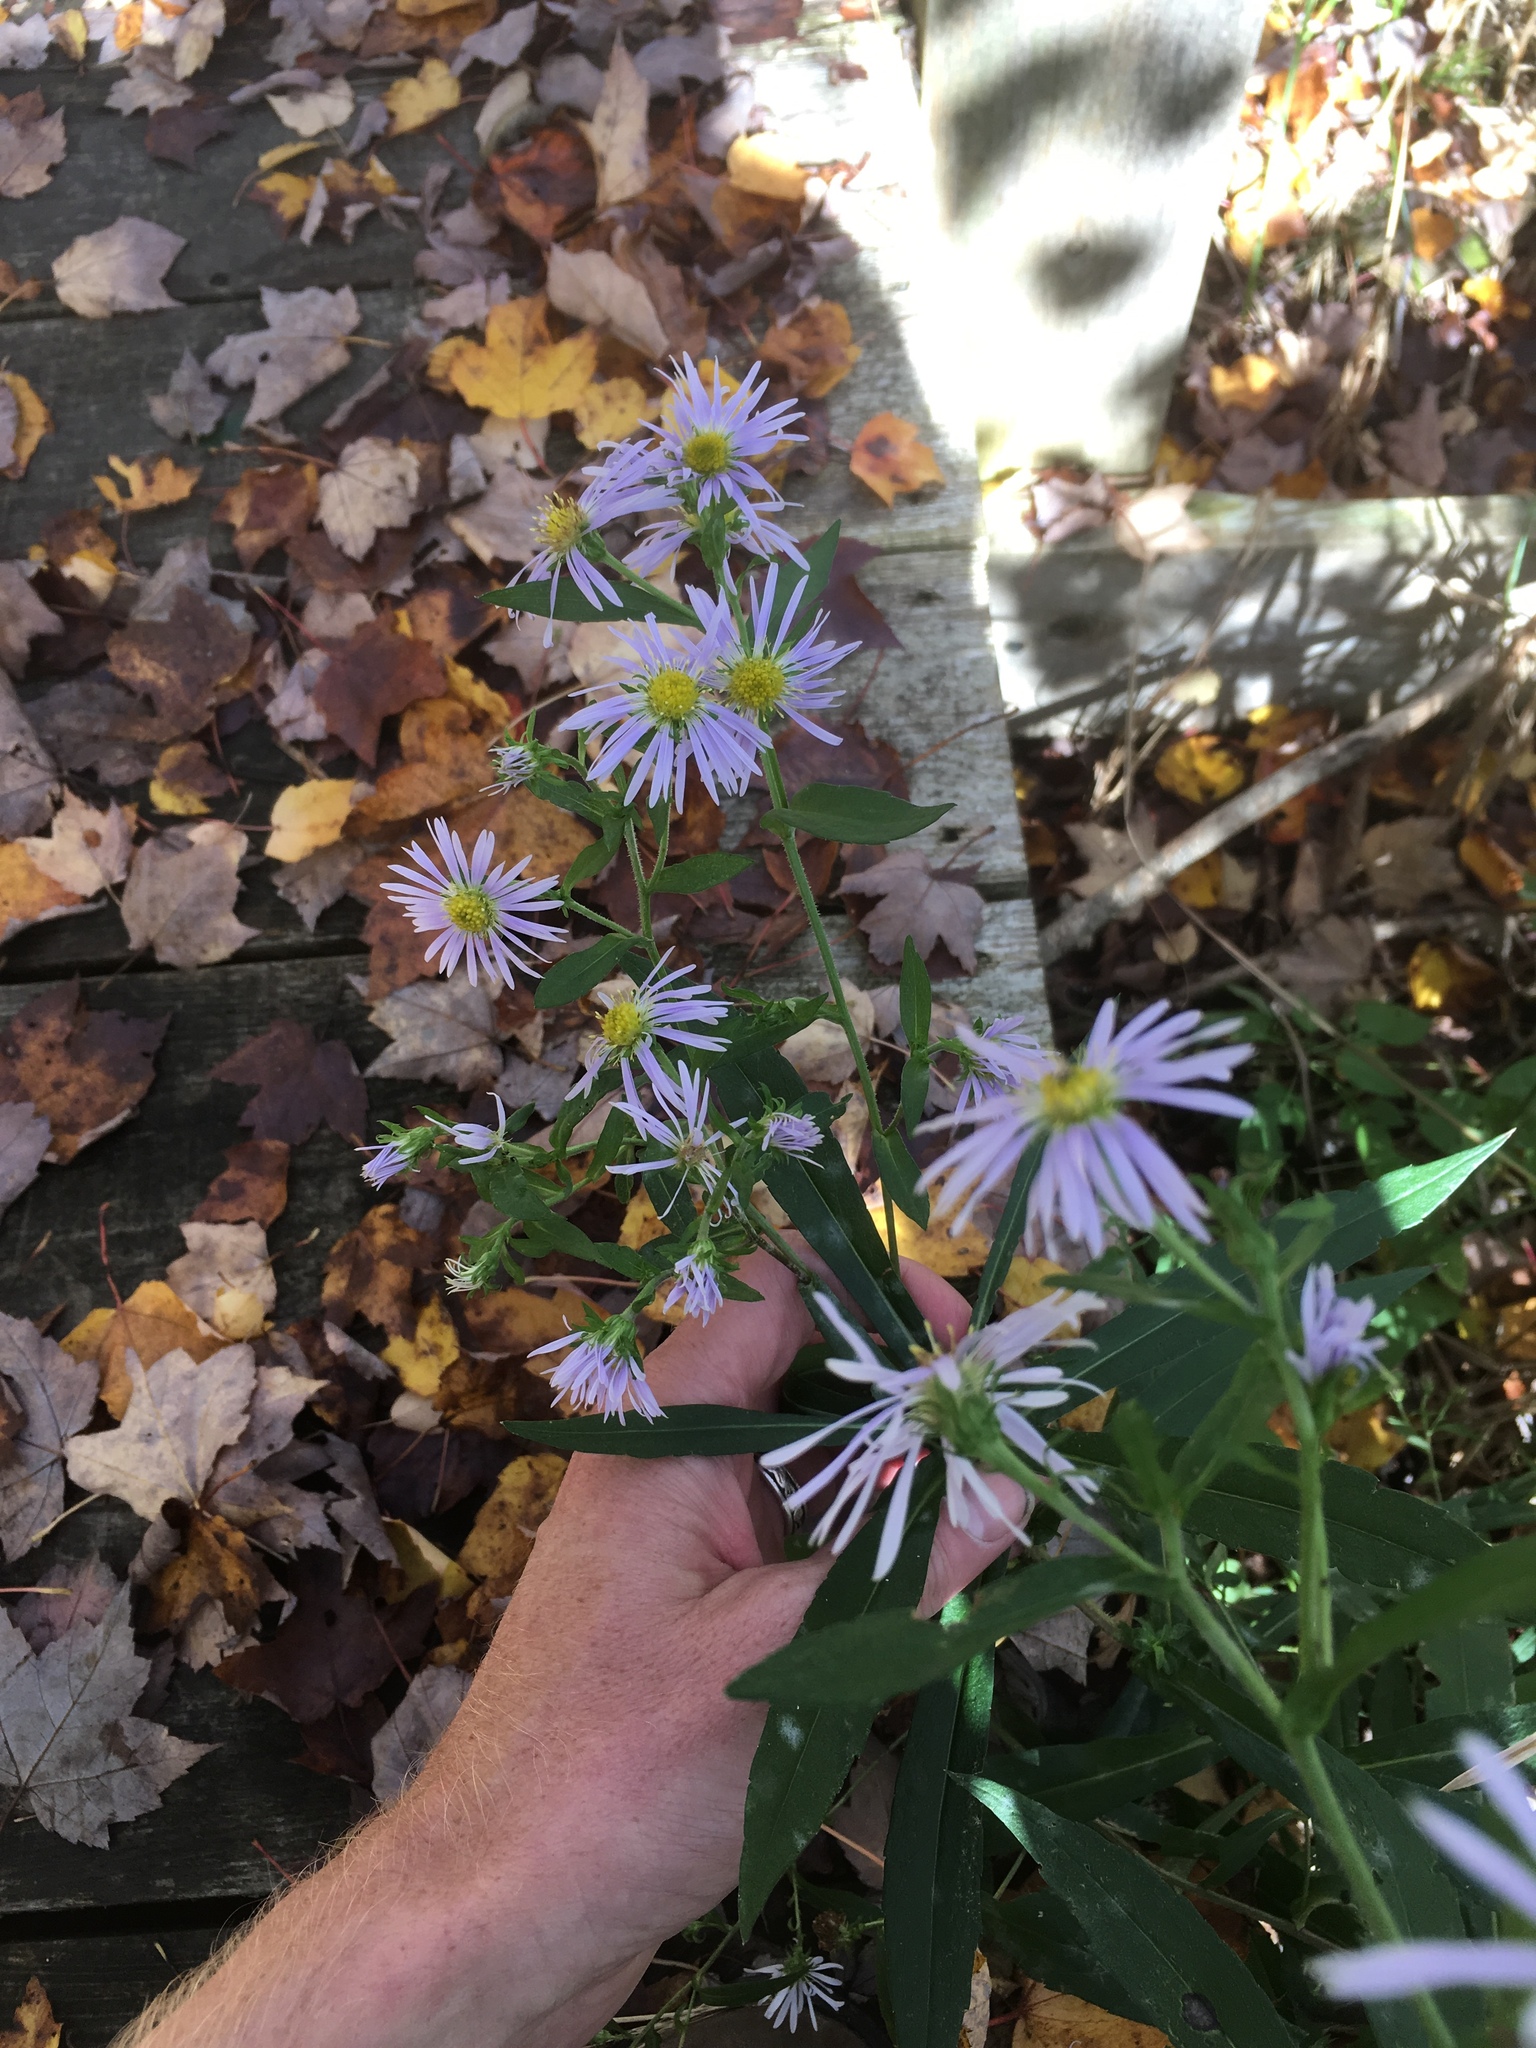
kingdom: Plantae
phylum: Tracheophyta
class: Magnoliopsida
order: Asterales
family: Asteraceae
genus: Symphyotrichum
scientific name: Symphyotrichum puniceum
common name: Bog aster
